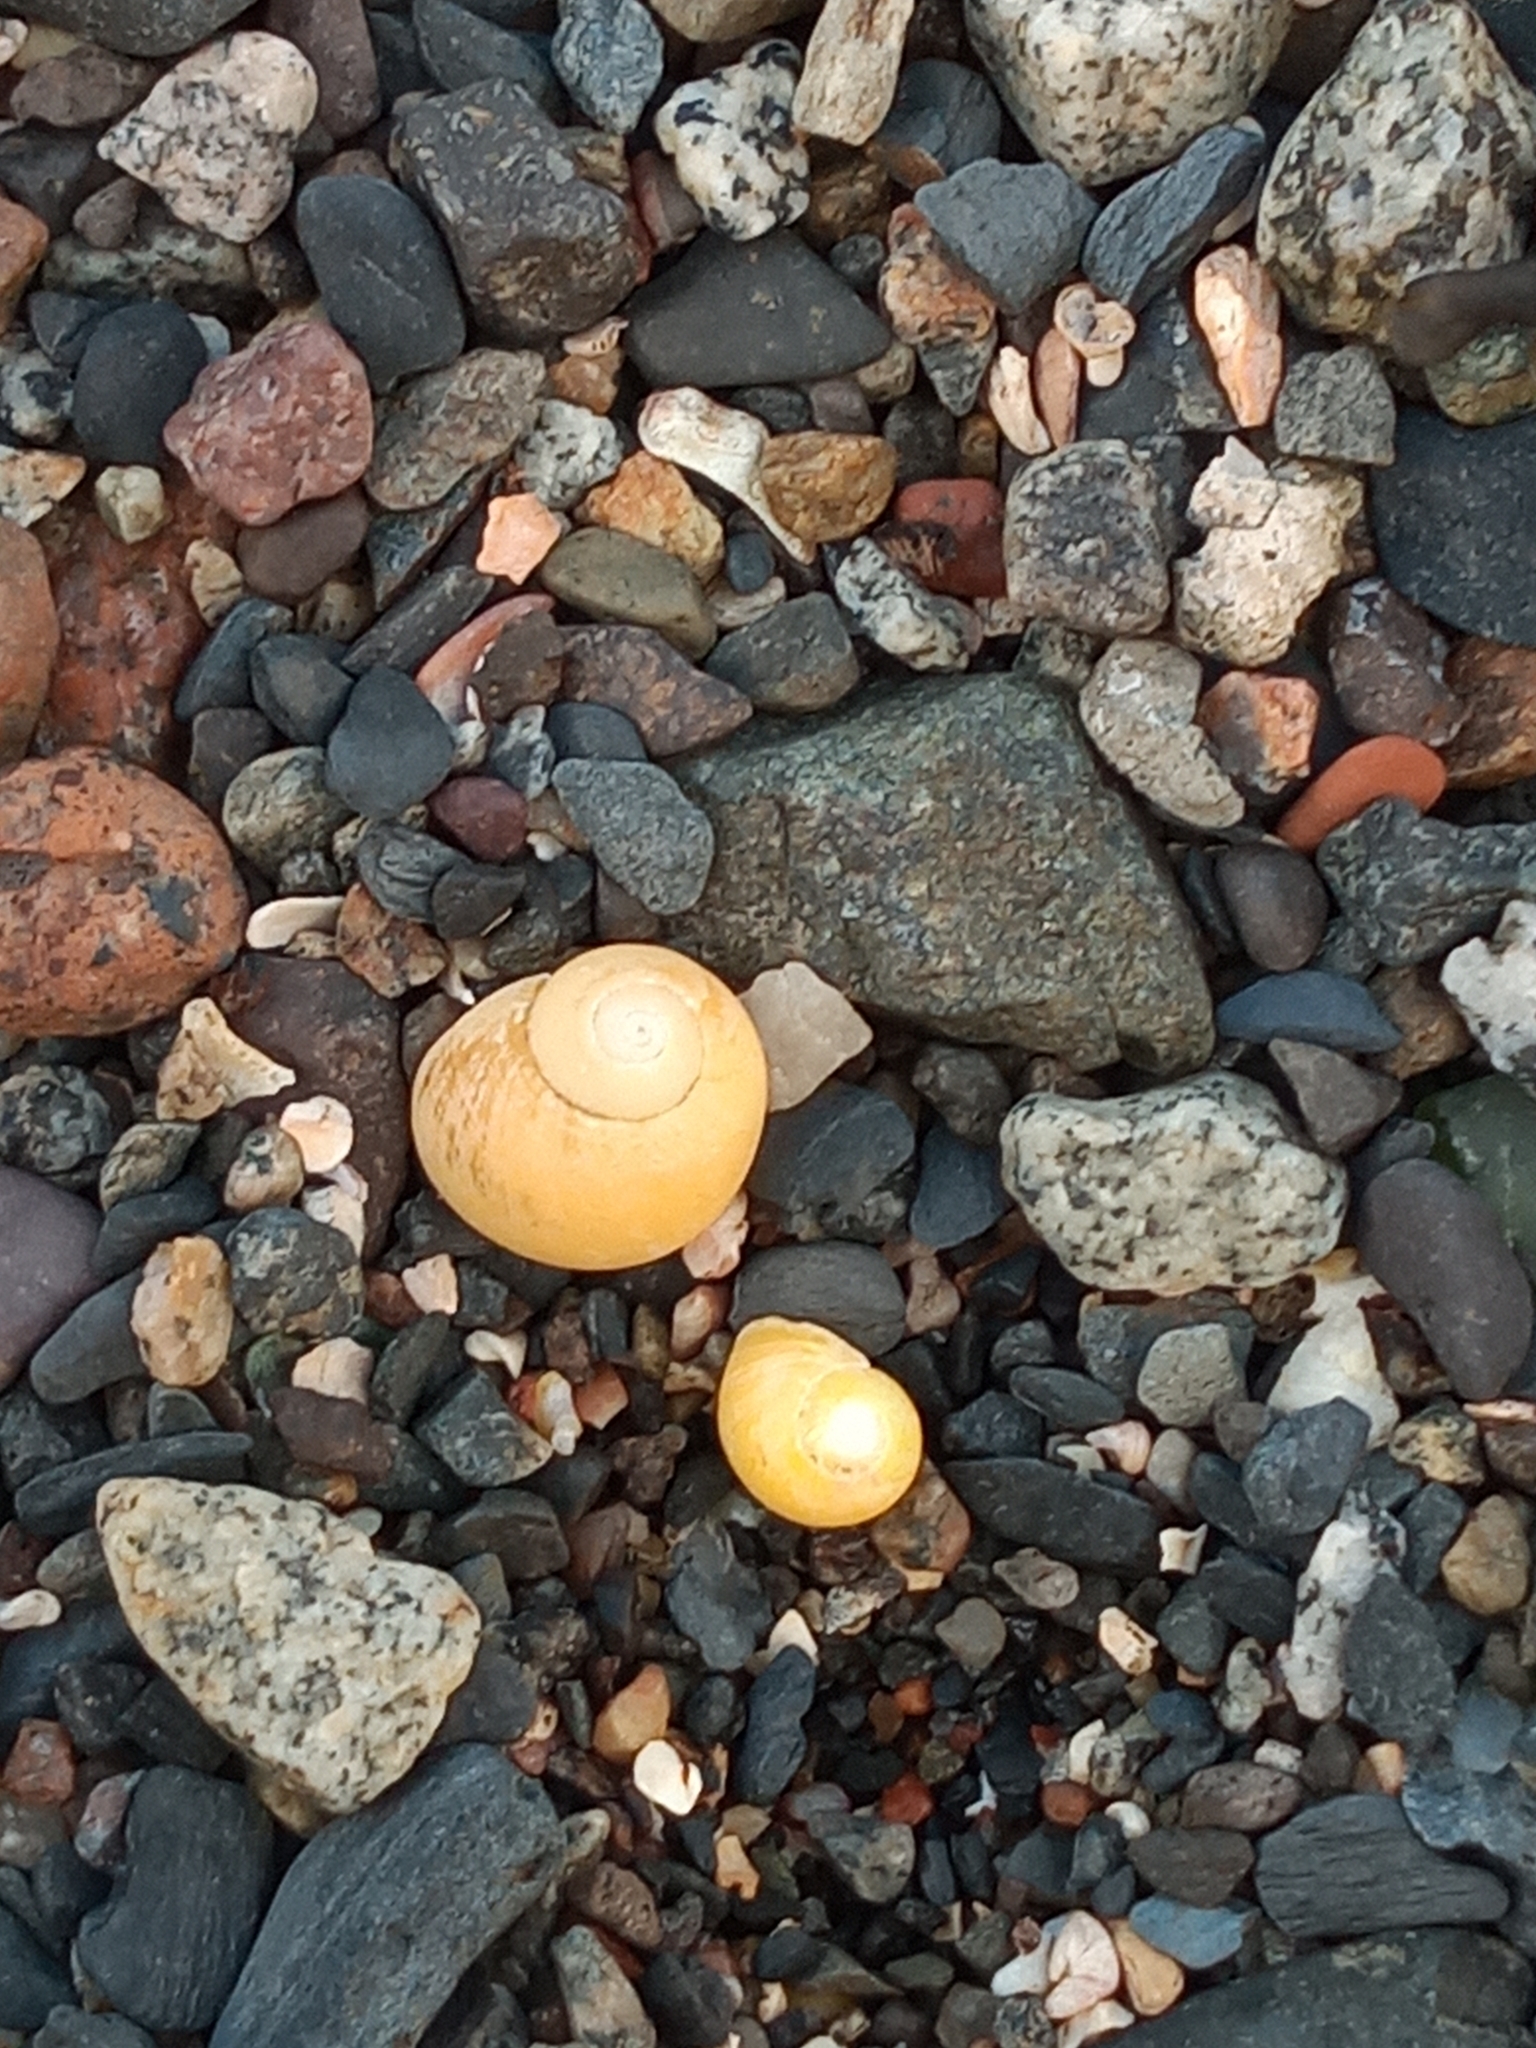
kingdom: Animalia
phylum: Mollusca
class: Gastropoda
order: Littorinimorpha
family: Littorinidae
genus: Littorina
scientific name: Littorina
